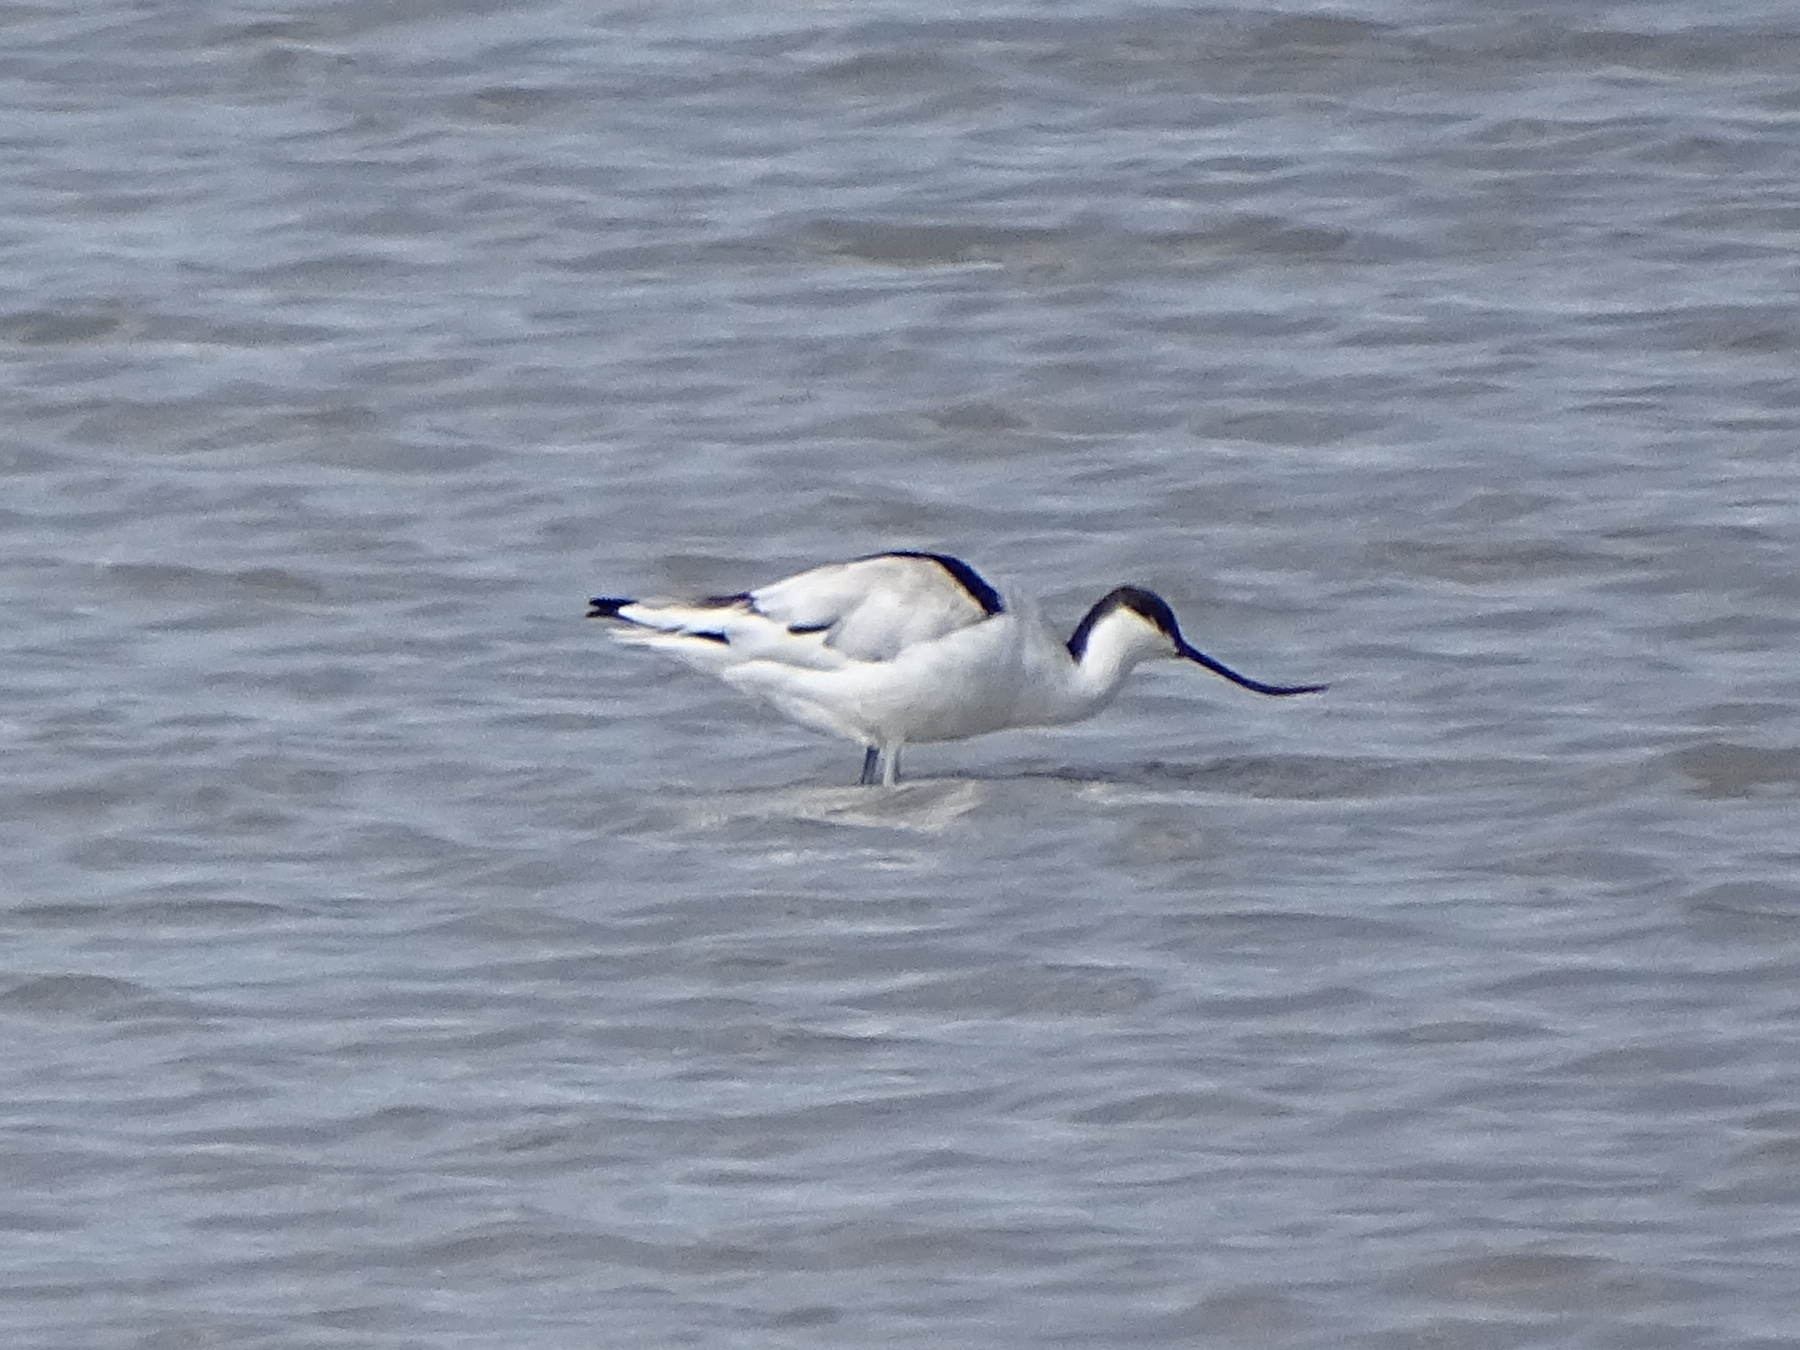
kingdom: Animalia
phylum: Chordata
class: Aves
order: Charadriiformes
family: Recurvirostridae
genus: Recurvirostra
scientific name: Recurvirostra avosetta
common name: Pied avocet
